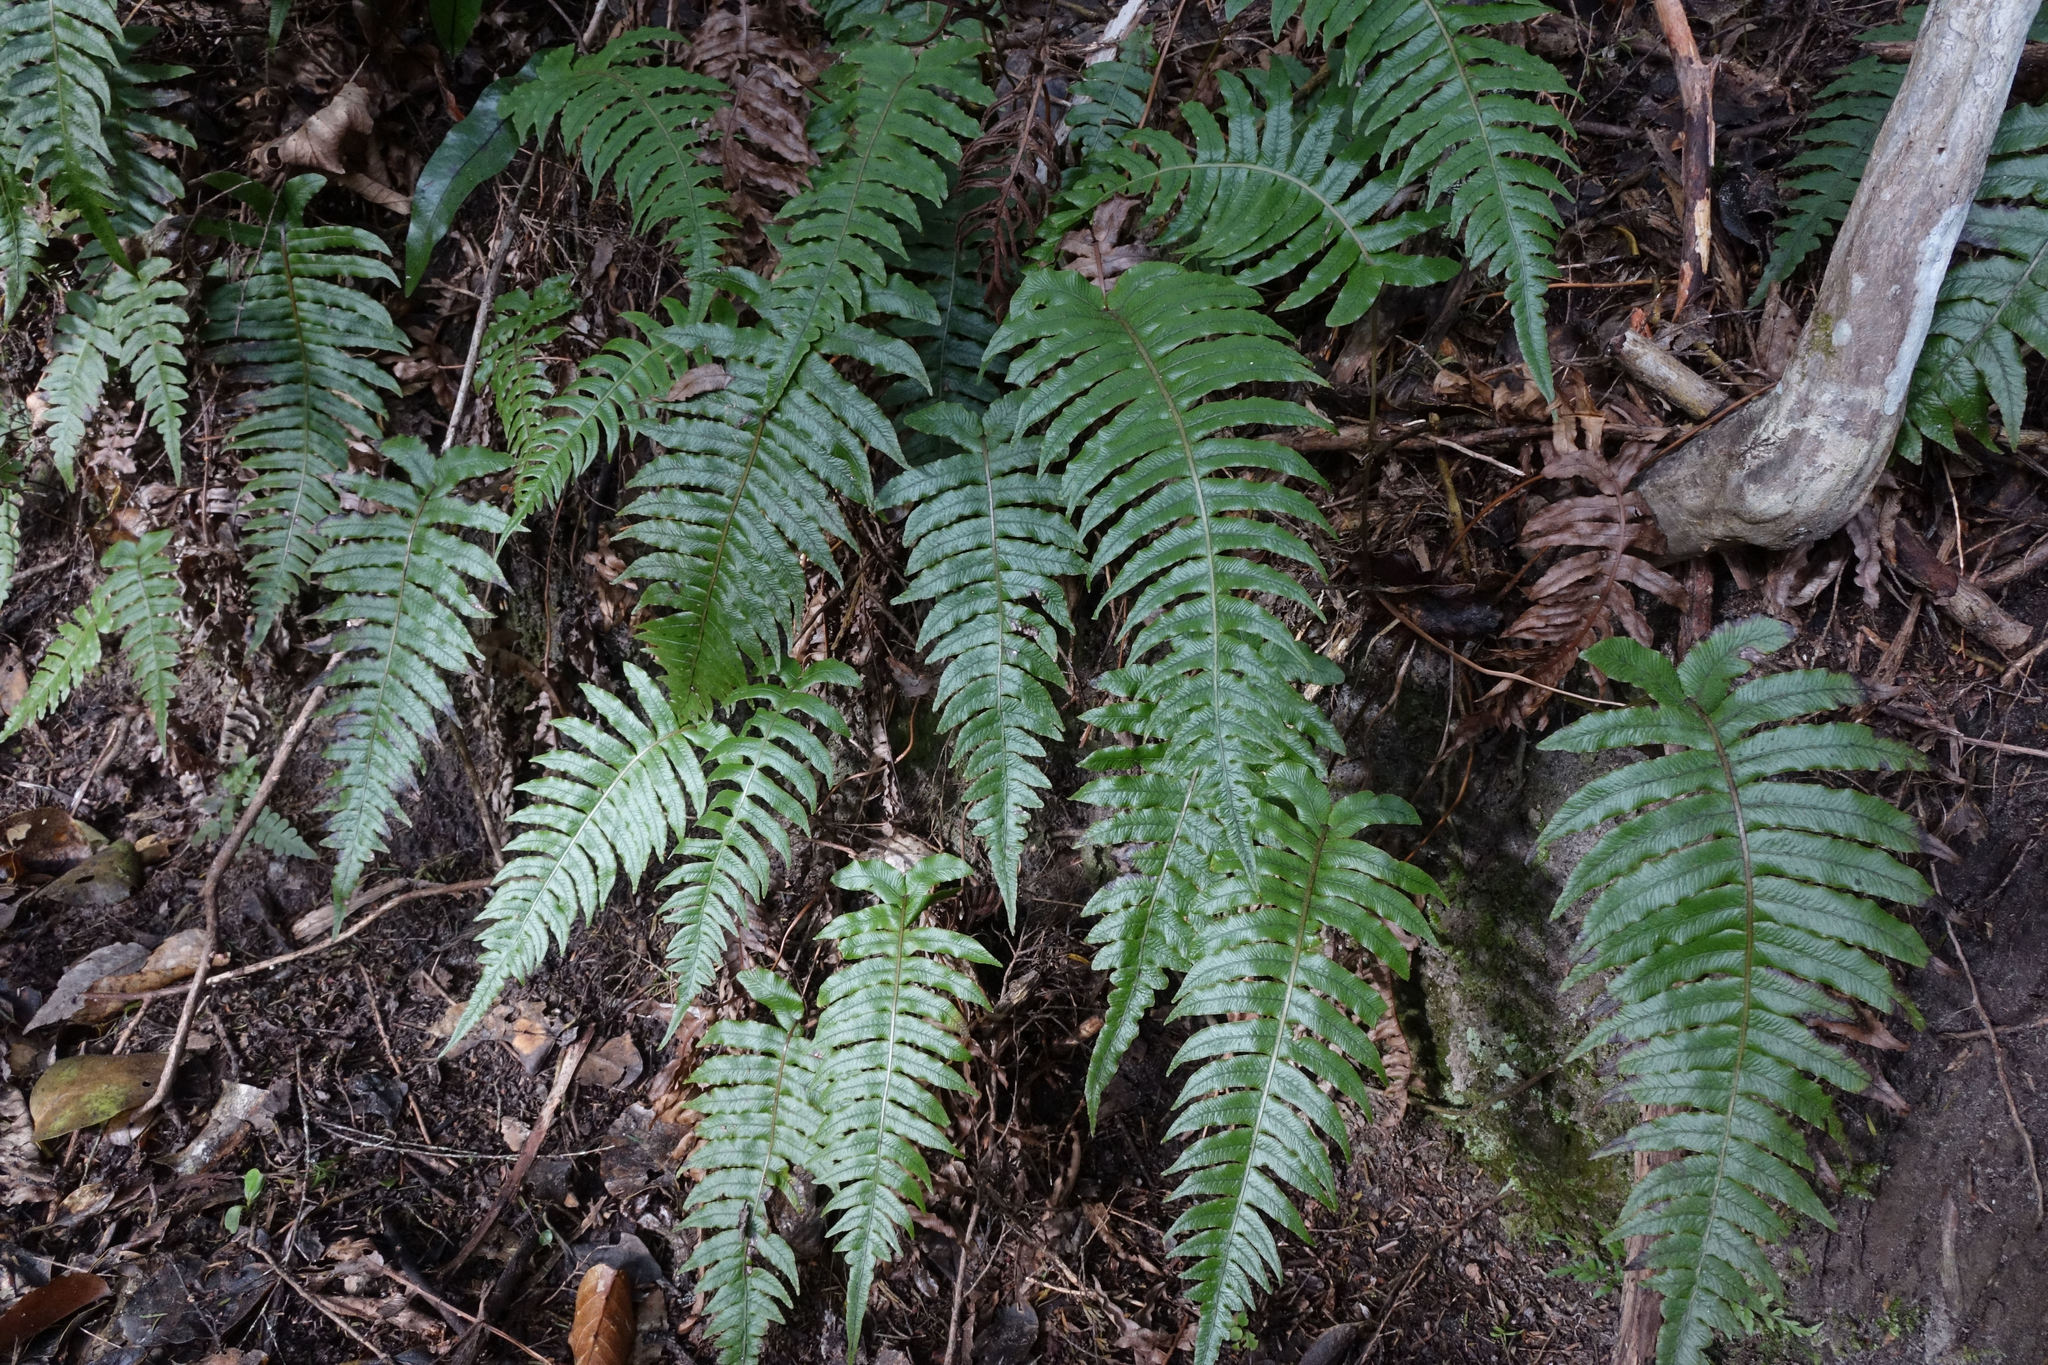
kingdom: Plantae
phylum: Tracheophyta
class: Polypodiopsida
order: Polypodiales
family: Blechnaceae
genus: Cranfillia
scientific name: Cranfillia vulcanica
